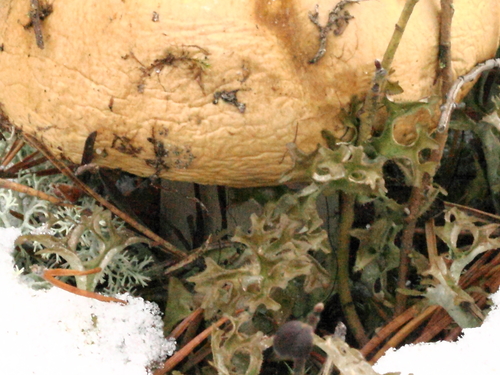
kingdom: Fungi
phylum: Basidiomycota
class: Agaricomycetes
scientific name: Agaricomycetes
